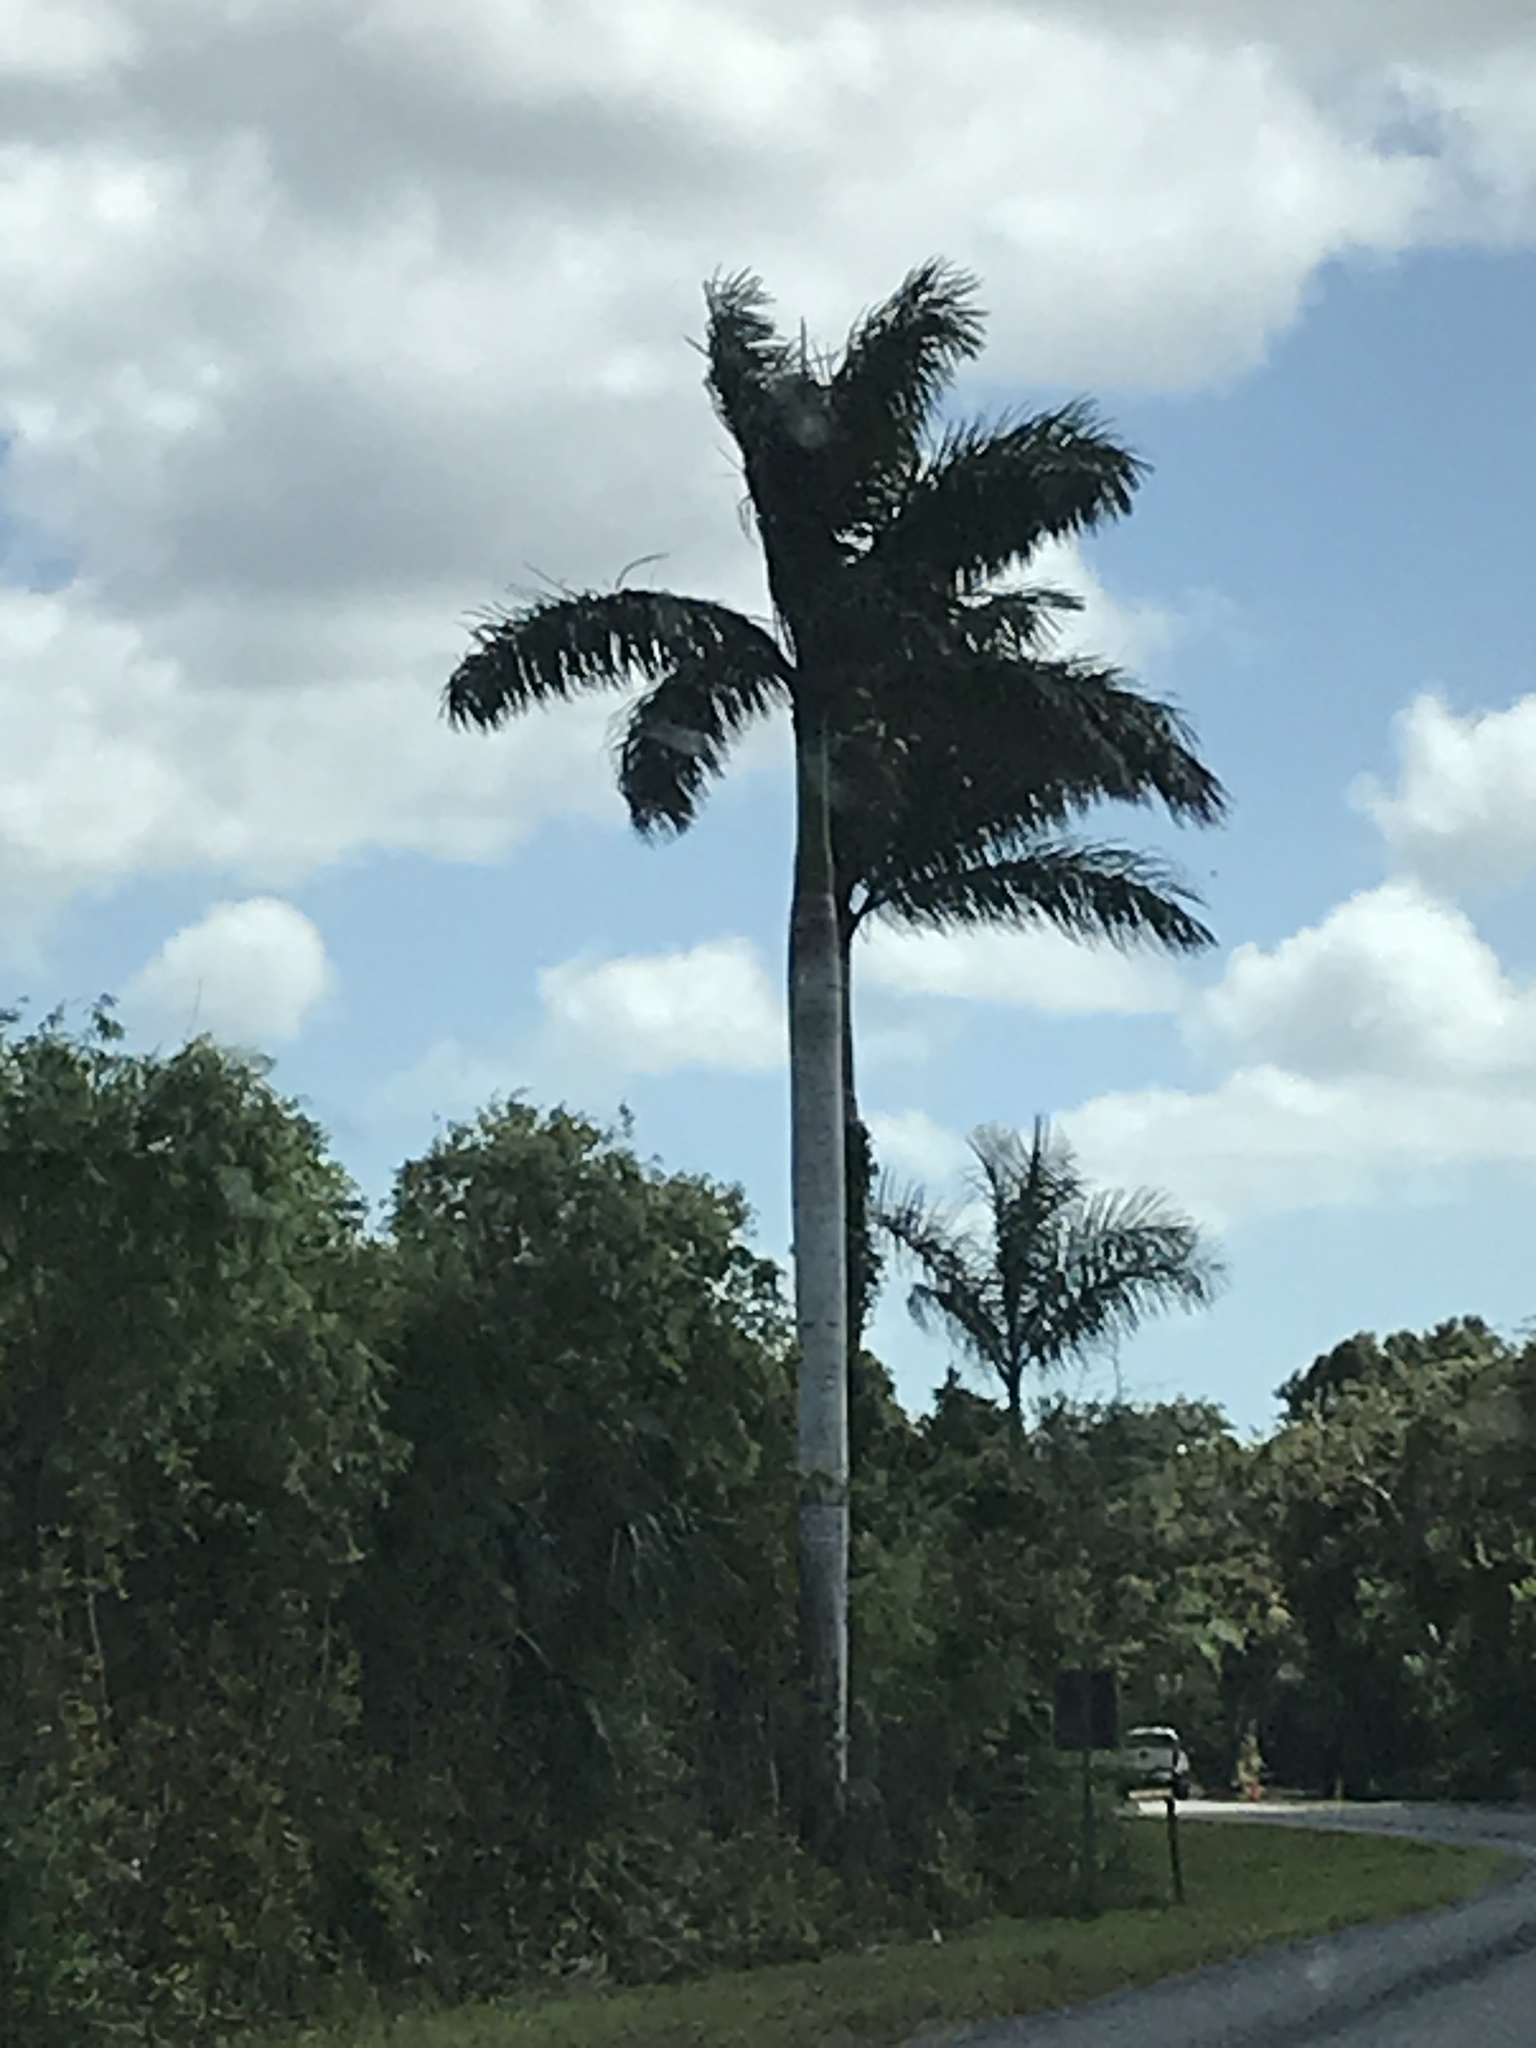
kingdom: Plantae
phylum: Tracheophyta
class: Liliopsida
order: Arecales
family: Arecaceae
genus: Roystonea
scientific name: Roystonea regia
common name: Florida royal palm
